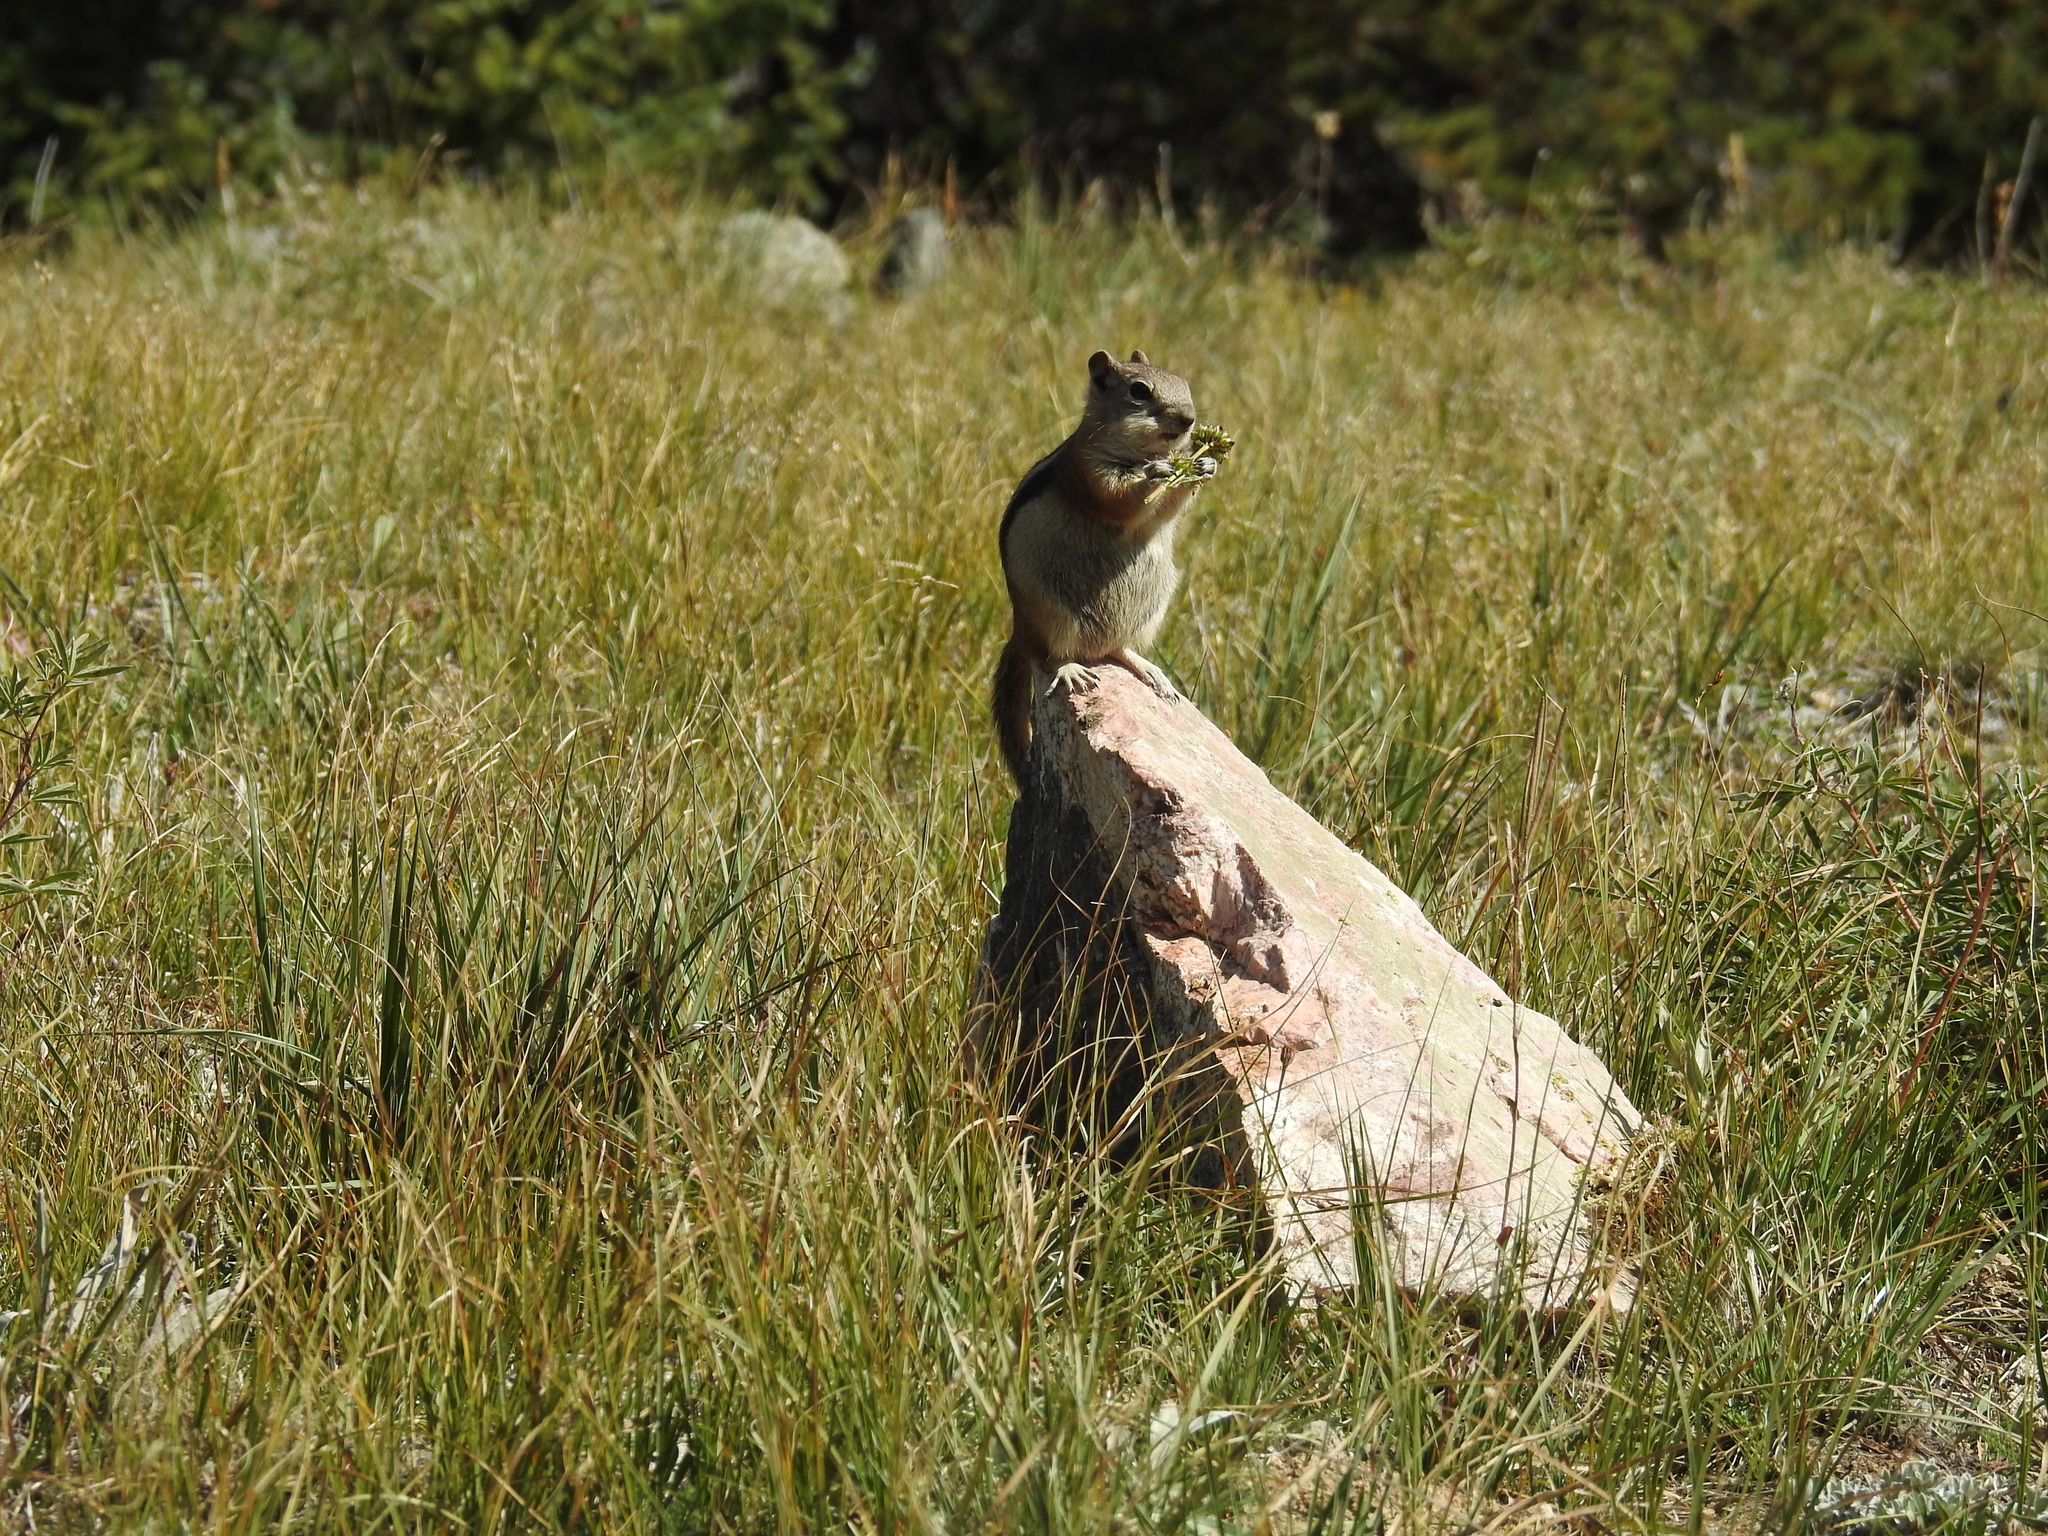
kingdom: Animalia
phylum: Chordata
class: Mammalia
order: Rodentia
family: Sciuridae
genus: Callospermophilus
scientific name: Callospermophilus lateralis
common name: Golden-mantled ground squirrel
